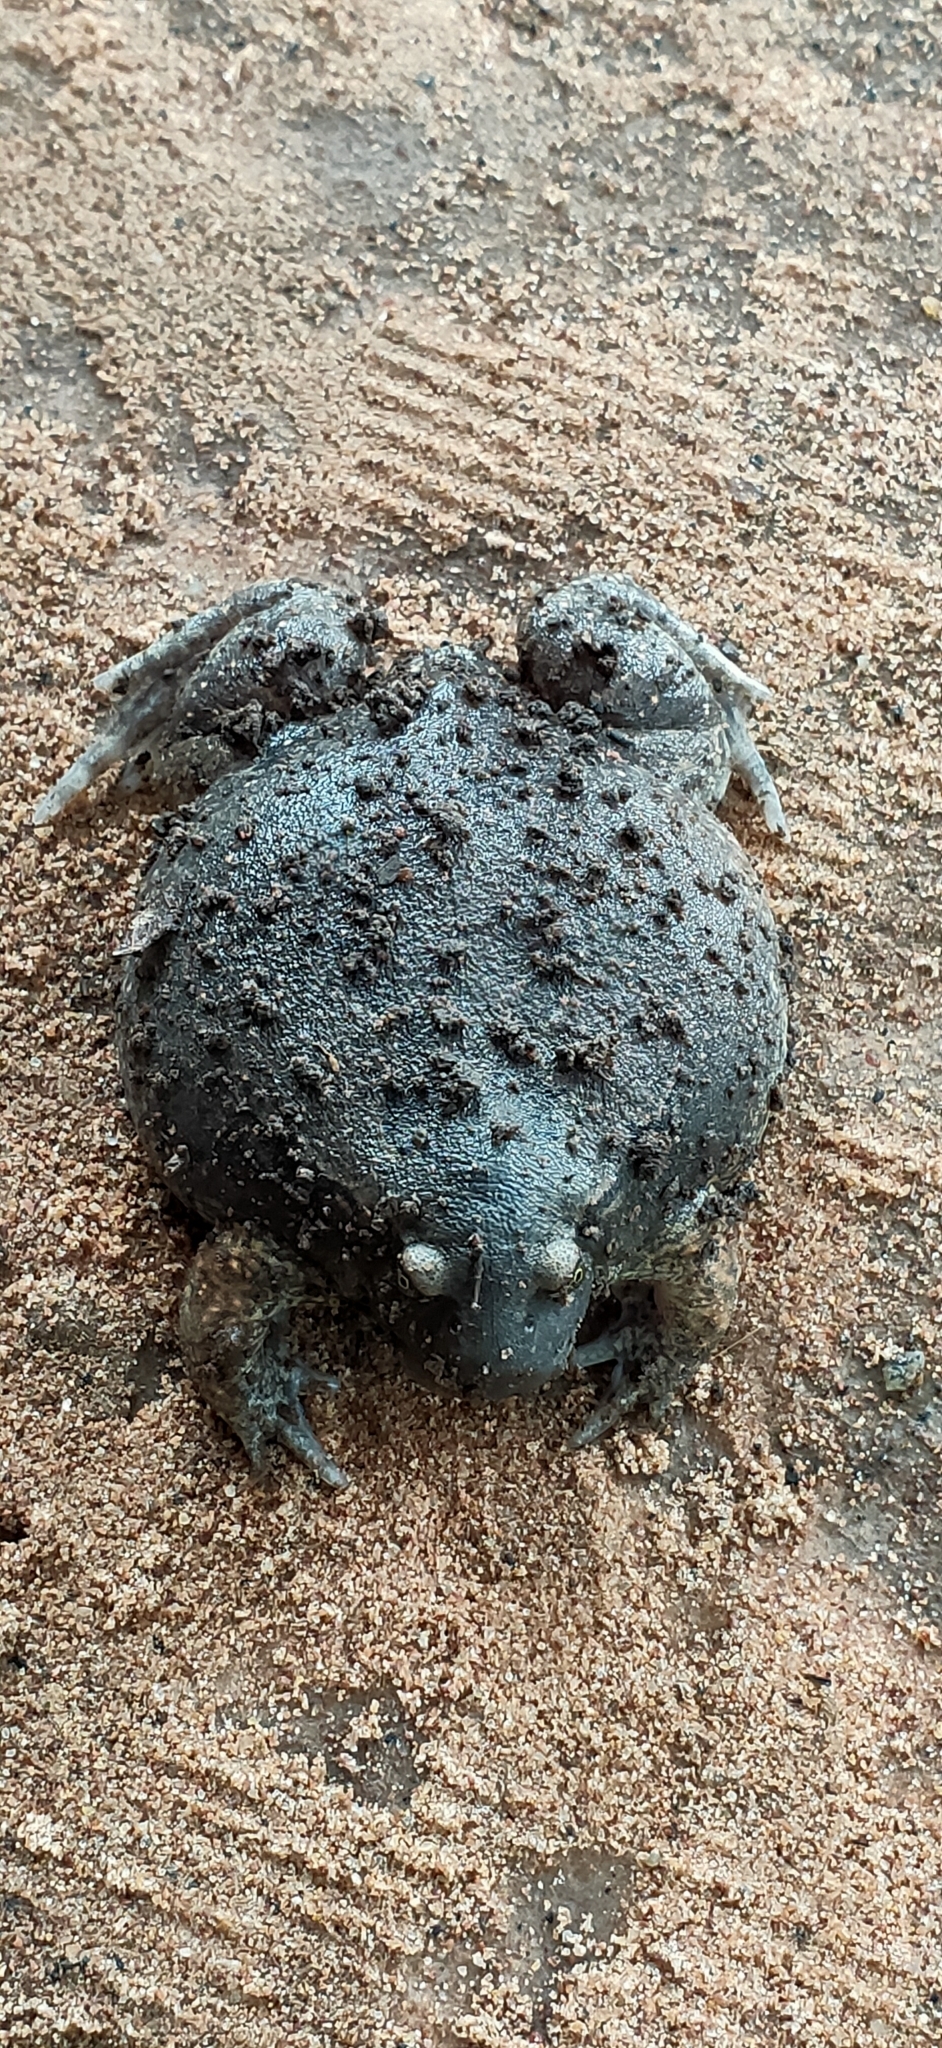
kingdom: Animalia
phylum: Chordata
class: Amphibia
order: Anura
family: Microhylidae
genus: Glyphoglossus
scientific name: Glyphoglossus molossus
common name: Balloon frog
